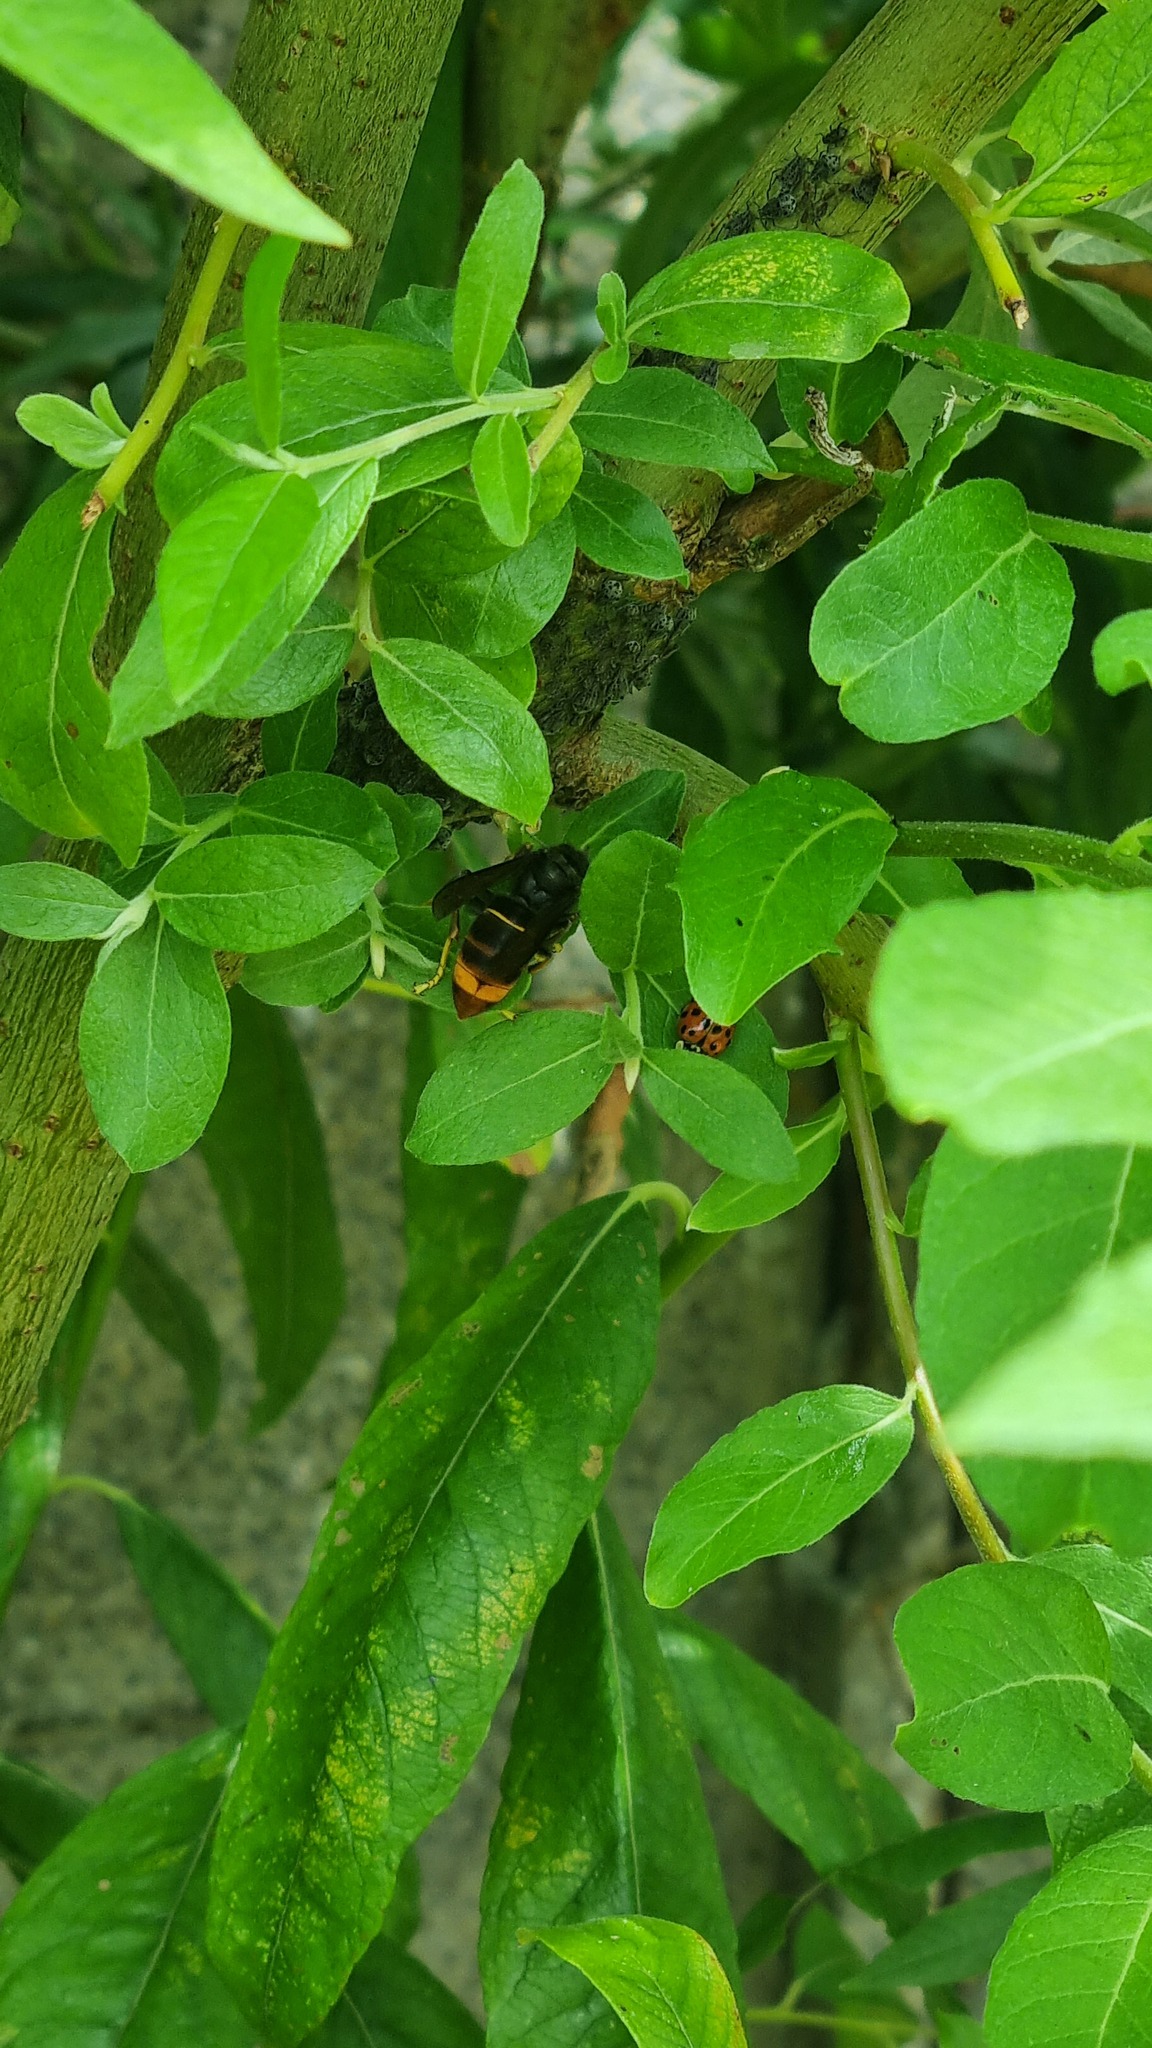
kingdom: Animalia
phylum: Arthropoda
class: Insecta
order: Hymenoptera
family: Vespidae
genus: Vespa
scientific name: Vespa velutina
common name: Asian hornet
